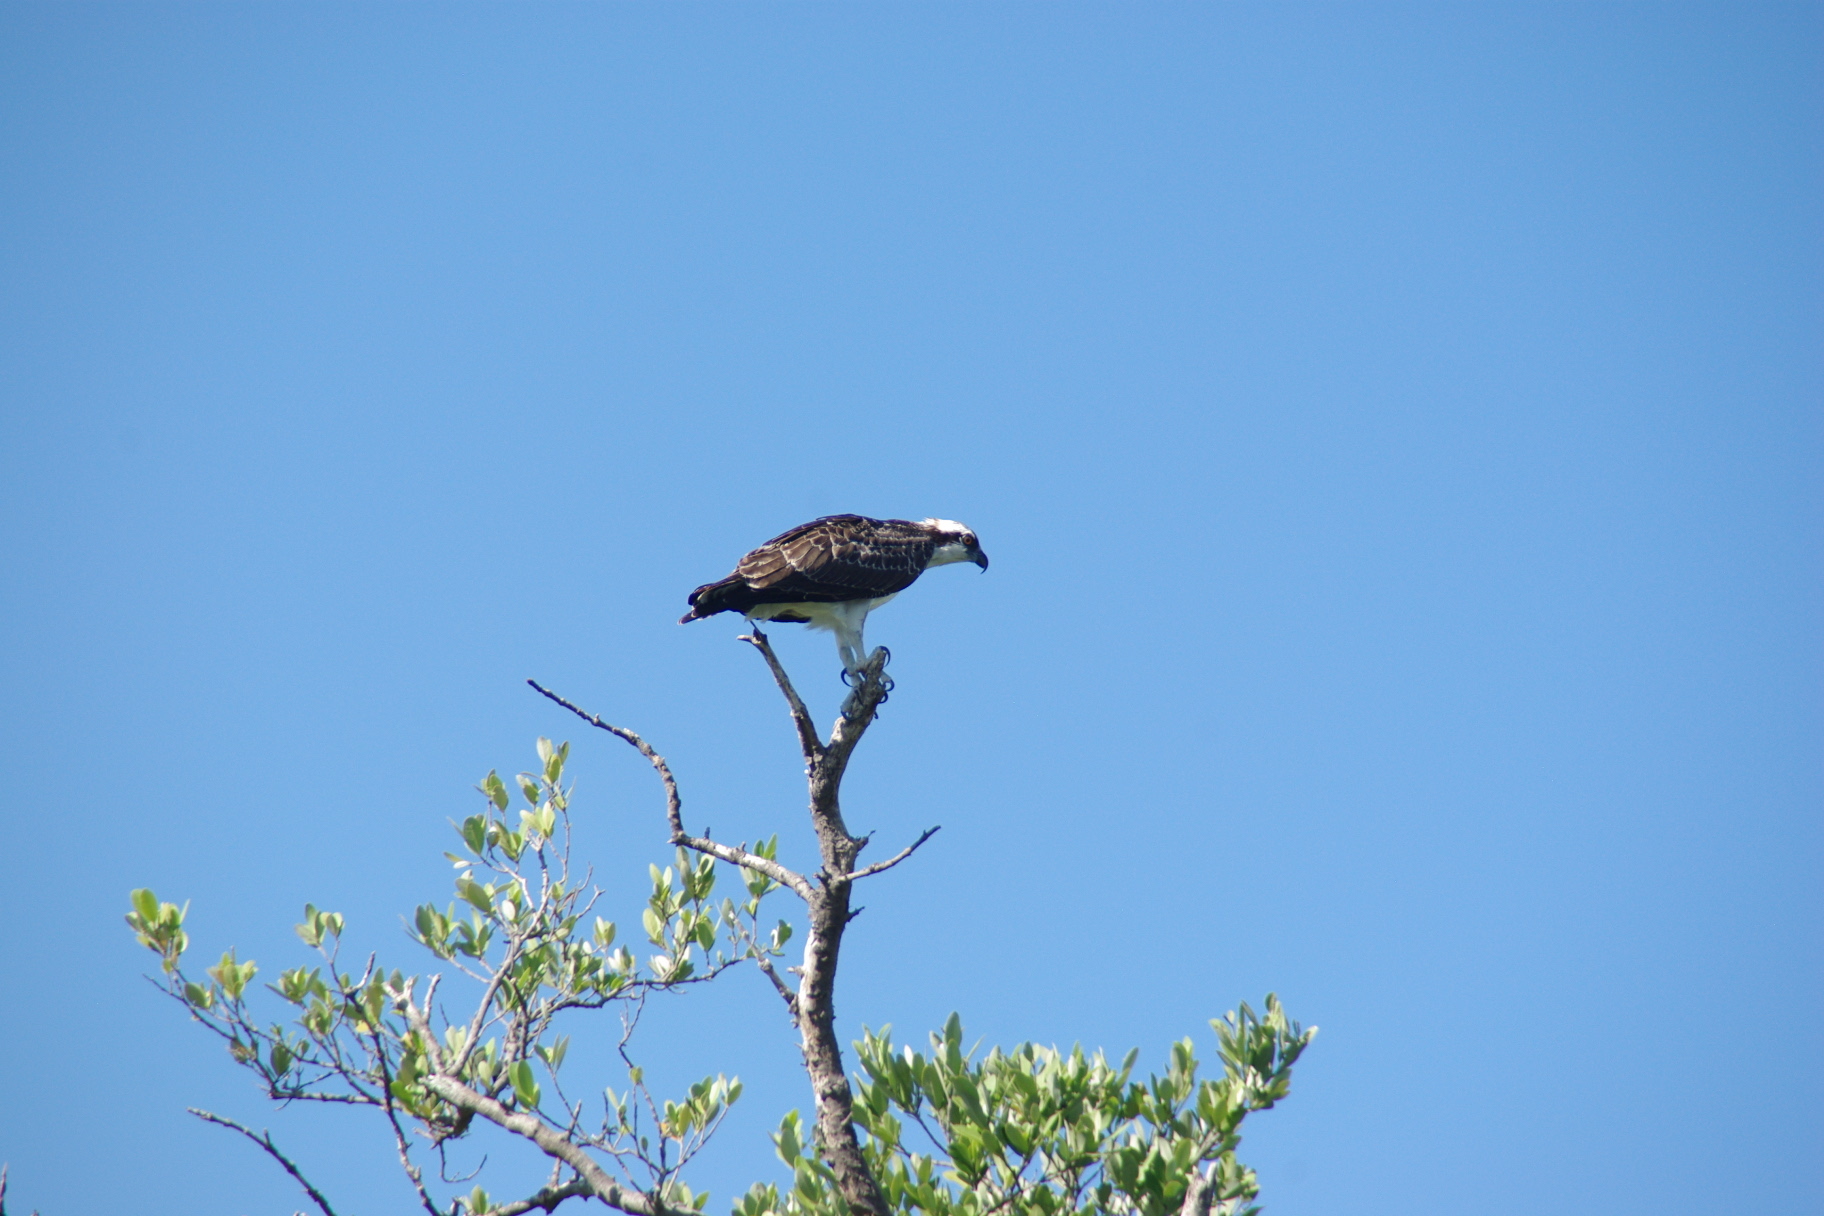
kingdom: Animalia
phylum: Chordata
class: Aves
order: Accipitriformes
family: Pandionidae
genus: Pandion
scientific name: Pandion haliaetus
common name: Osprey
